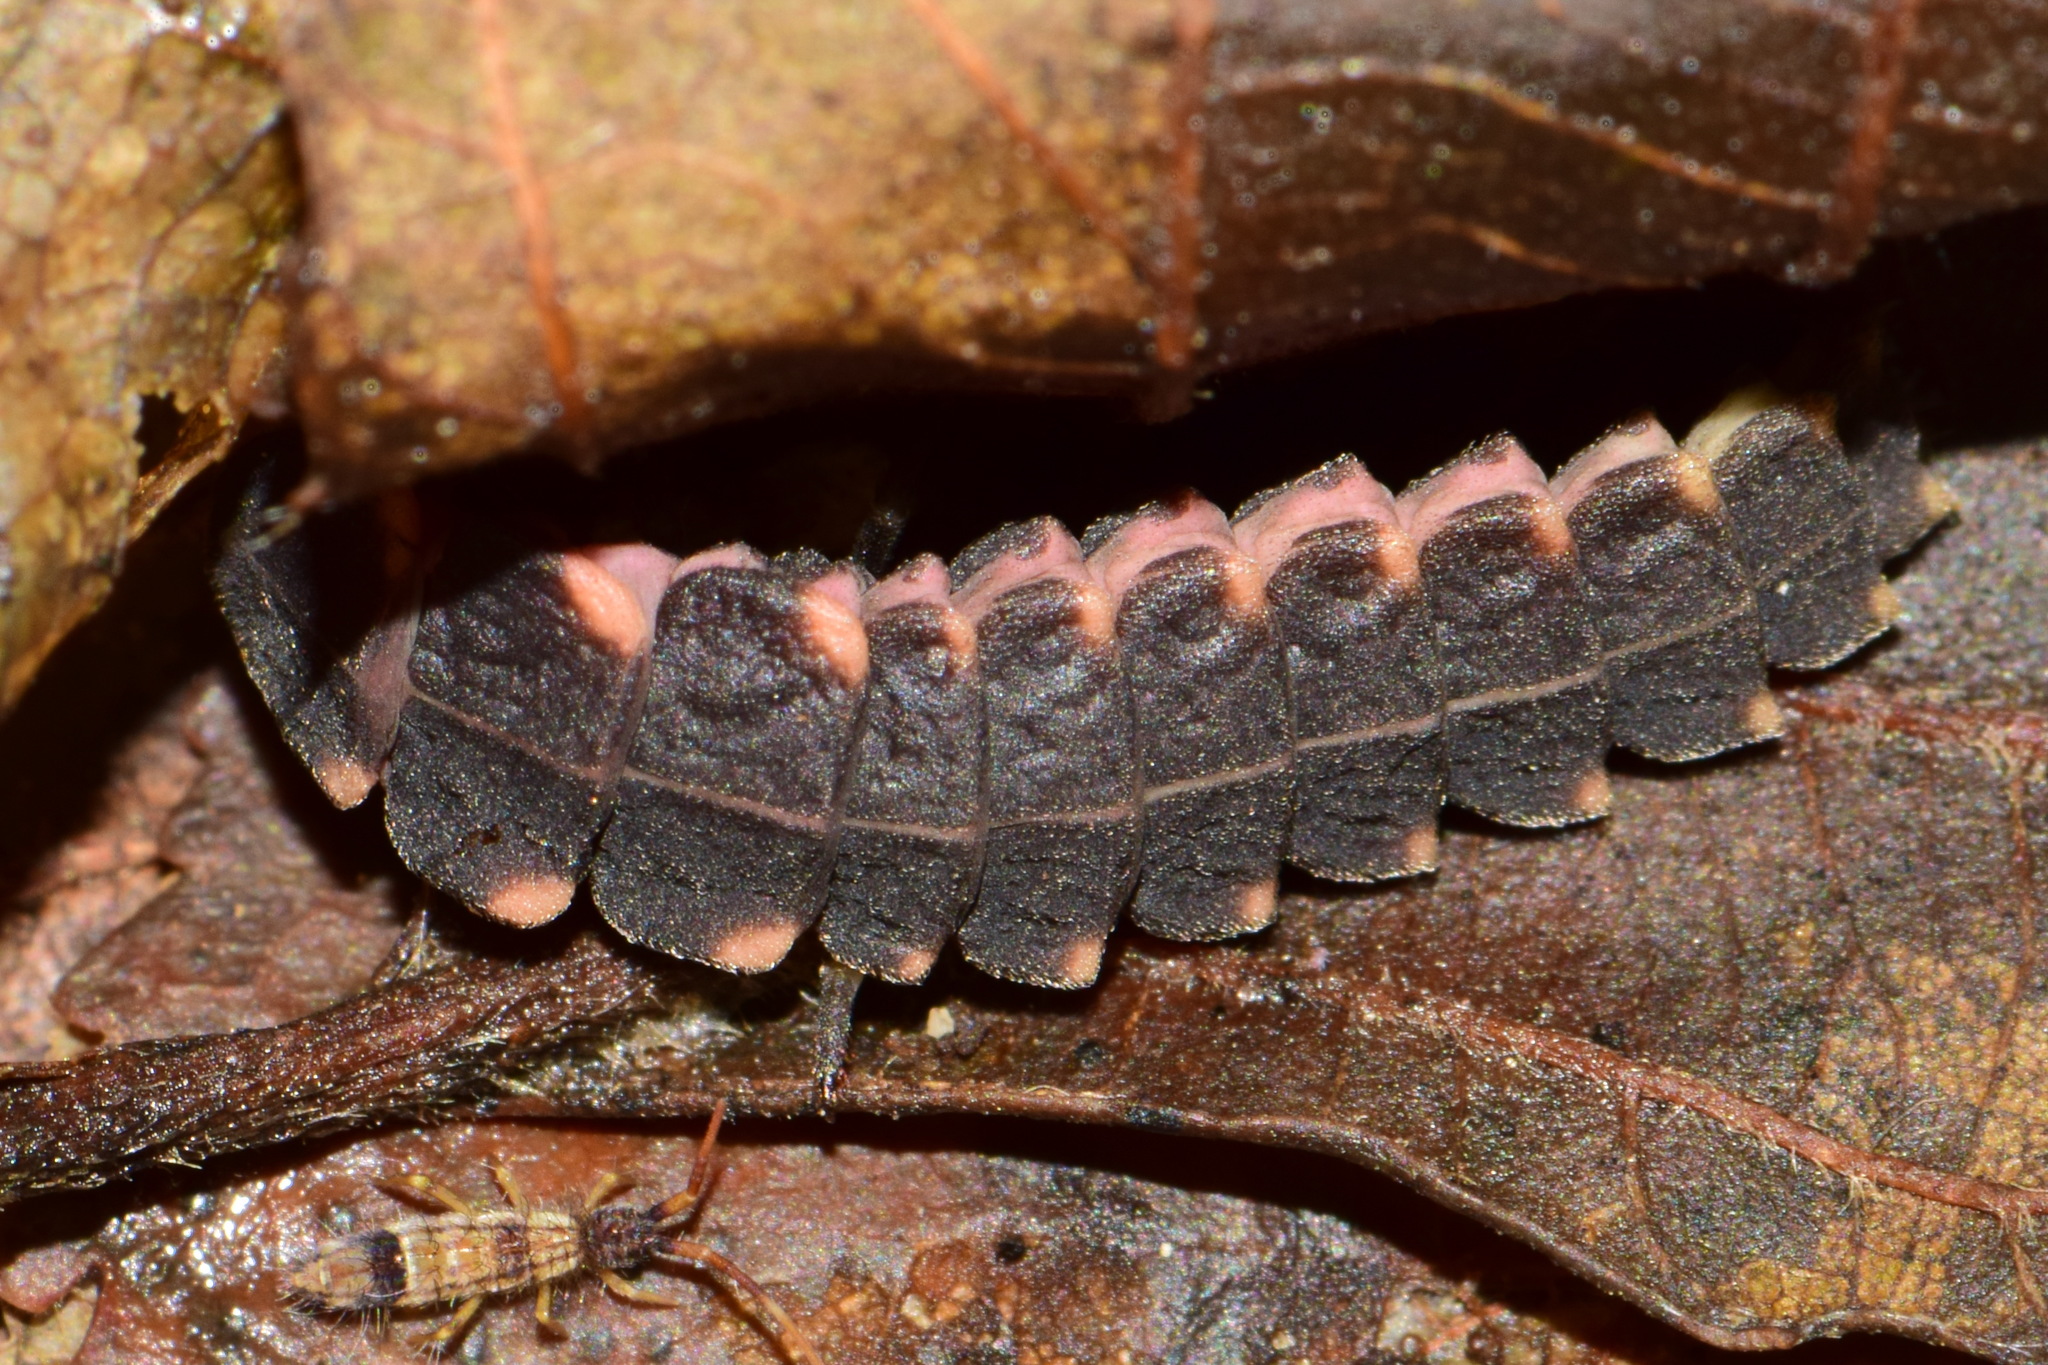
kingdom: Animalia
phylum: Arthropoda
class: Insecta
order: Coleoptera
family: Lampyridae
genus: Lampyris
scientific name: Lampyris noctiluca
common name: Glow-worm
